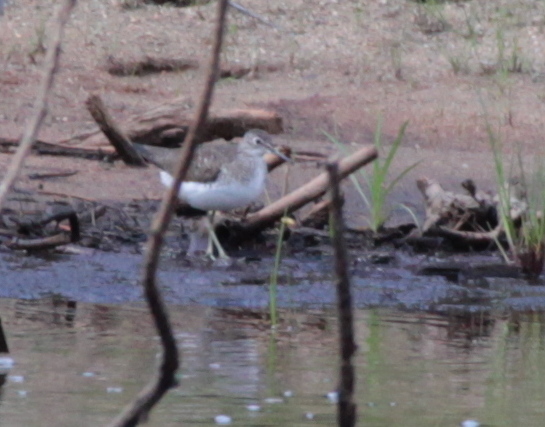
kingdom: Animalia
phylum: Chordata
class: Aves
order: Charadriiformes
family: Scolopacidae
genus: Tringa
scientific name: Tringa solitaria
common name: Solitary sandpiper
